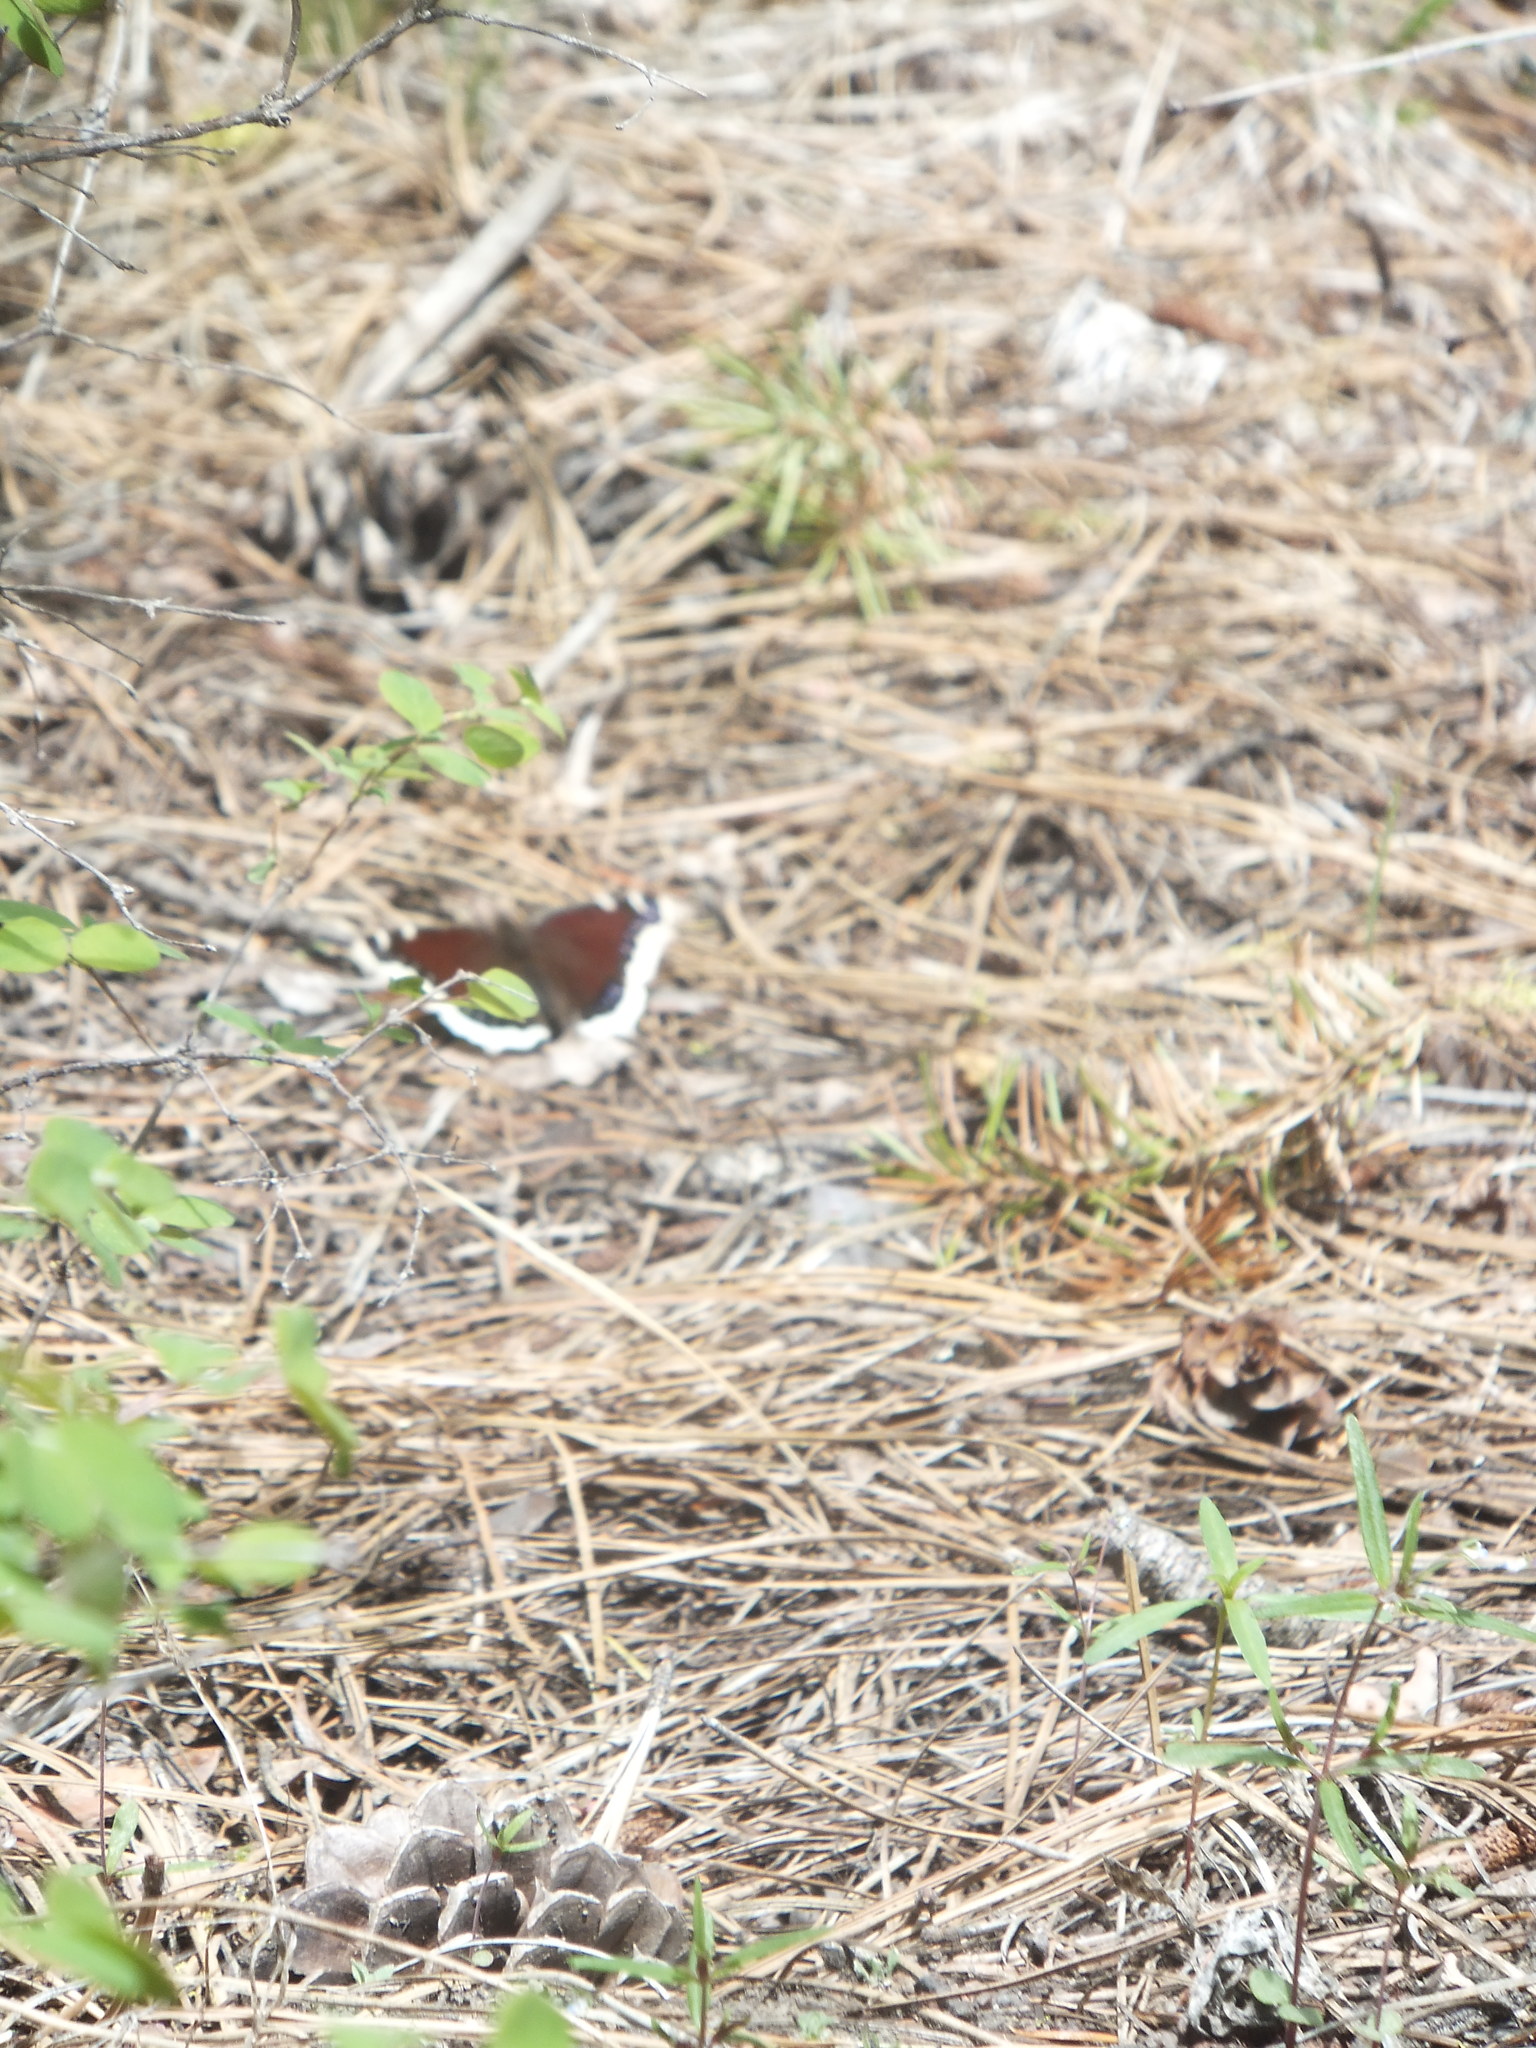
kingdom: Animalia
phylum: Arthropoda
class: Insecta
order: Lepidoptera
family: Nymphalidae
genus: Nymphalis
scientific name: Nymphalis antiopa
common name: Camberwell beauty
